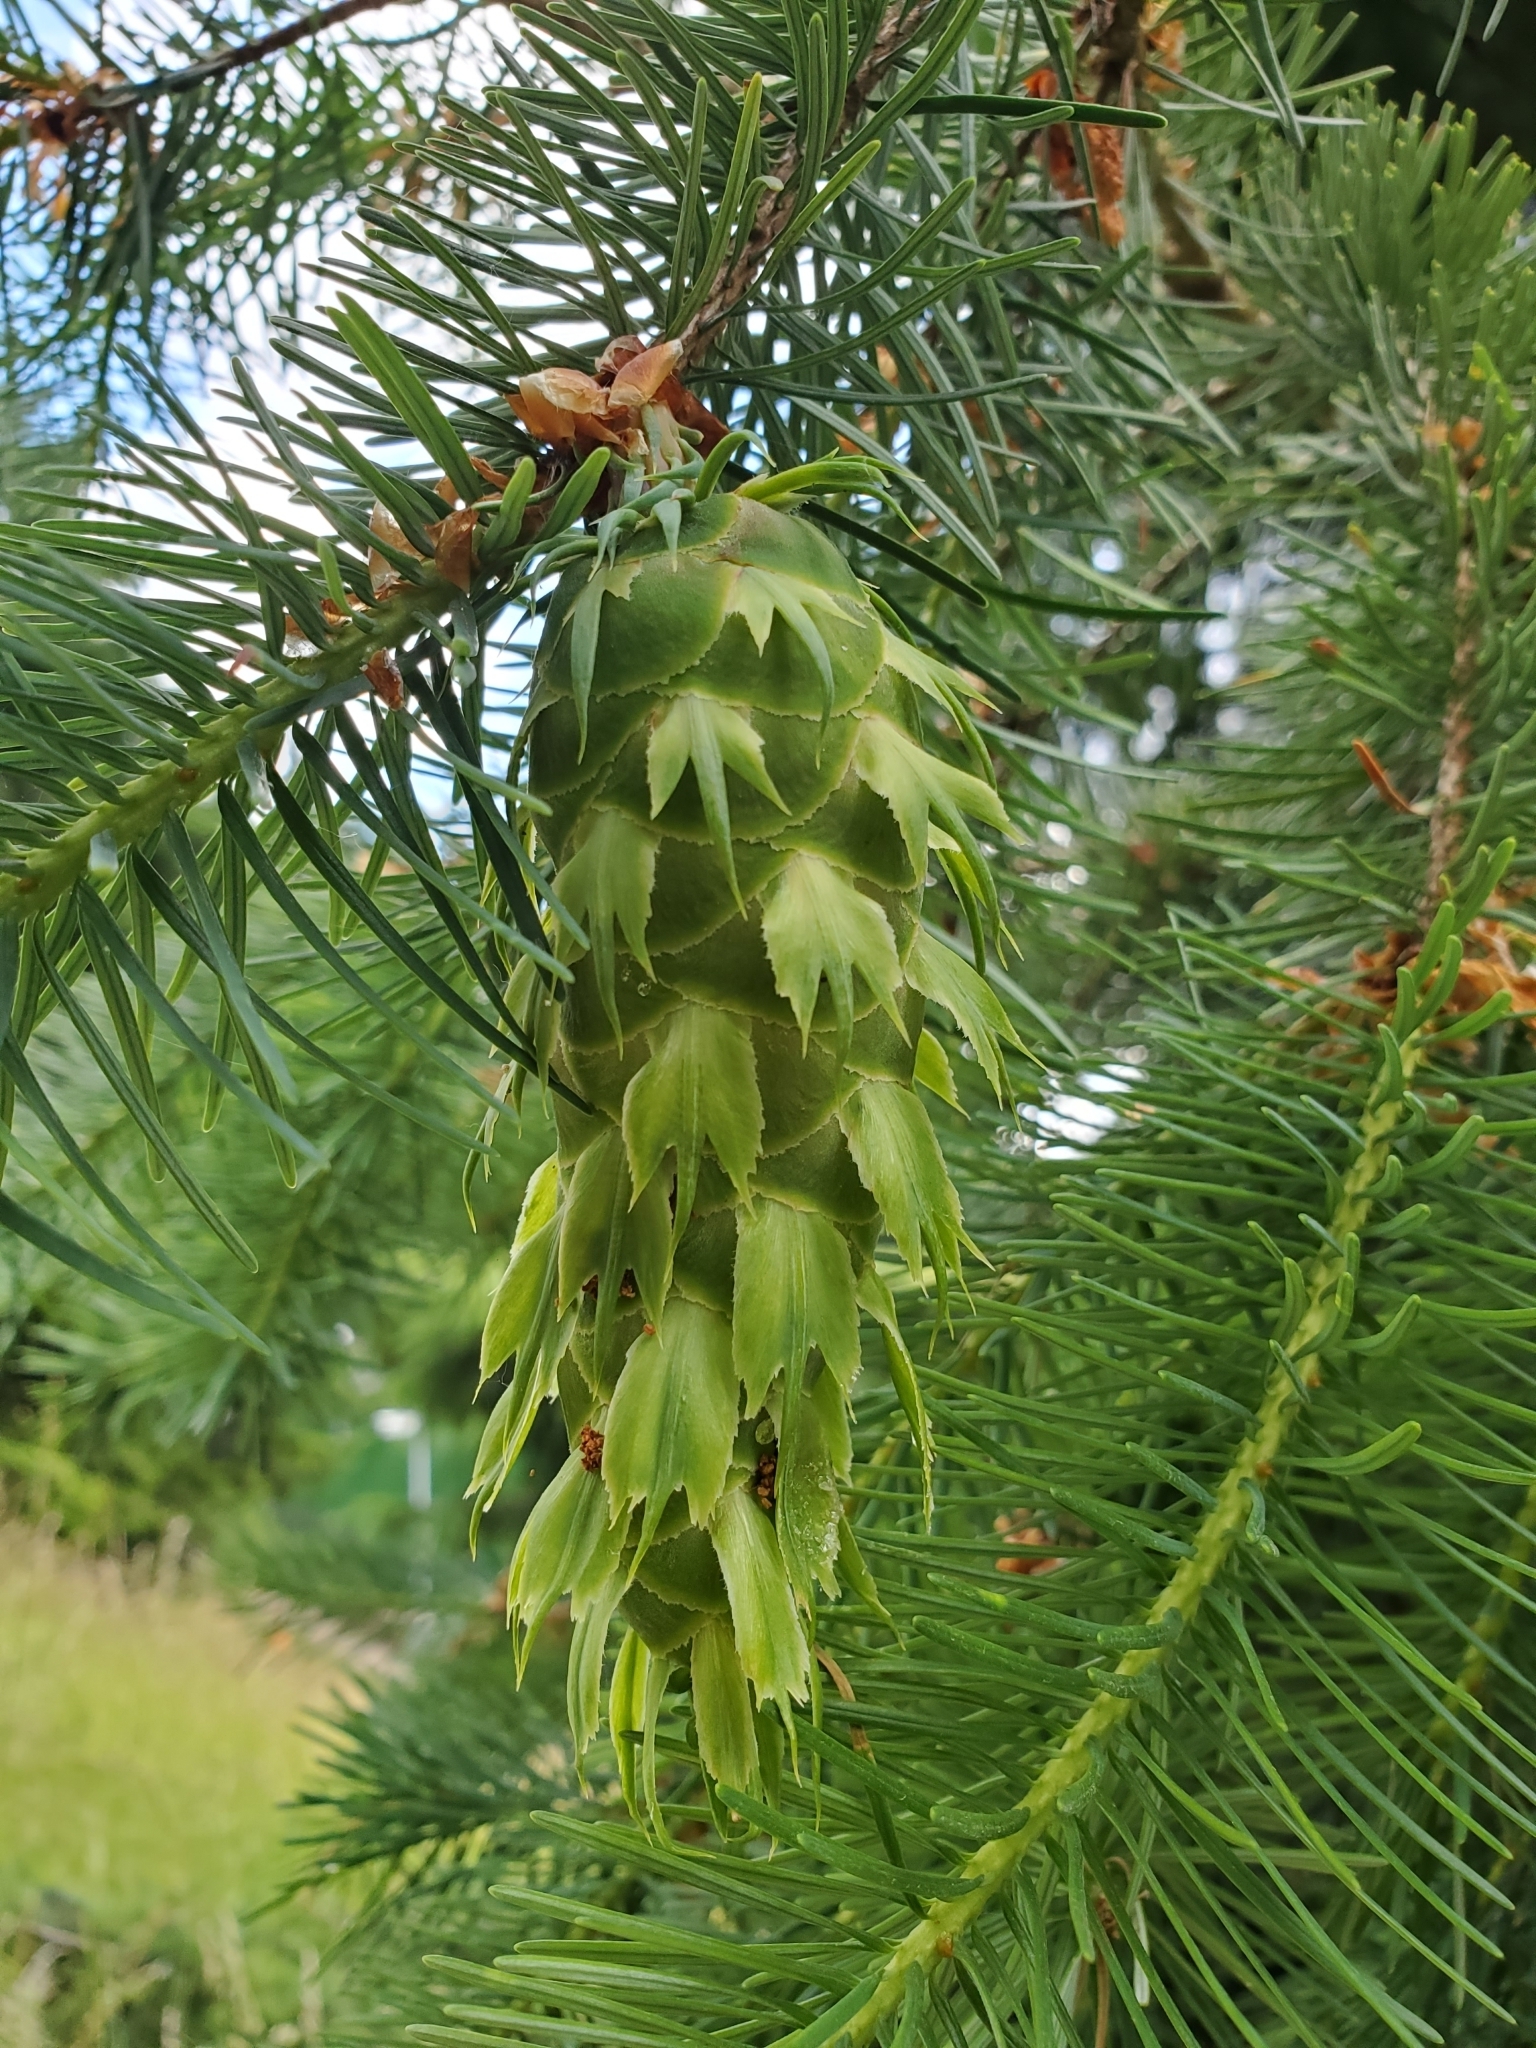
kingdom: Plantae
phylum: Tracheophyta
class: Pinopsida
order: Pinales
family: Pinaceae
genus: Pseudotsuga
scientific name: Pseudotsuga menziesii
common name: Douglas fir
